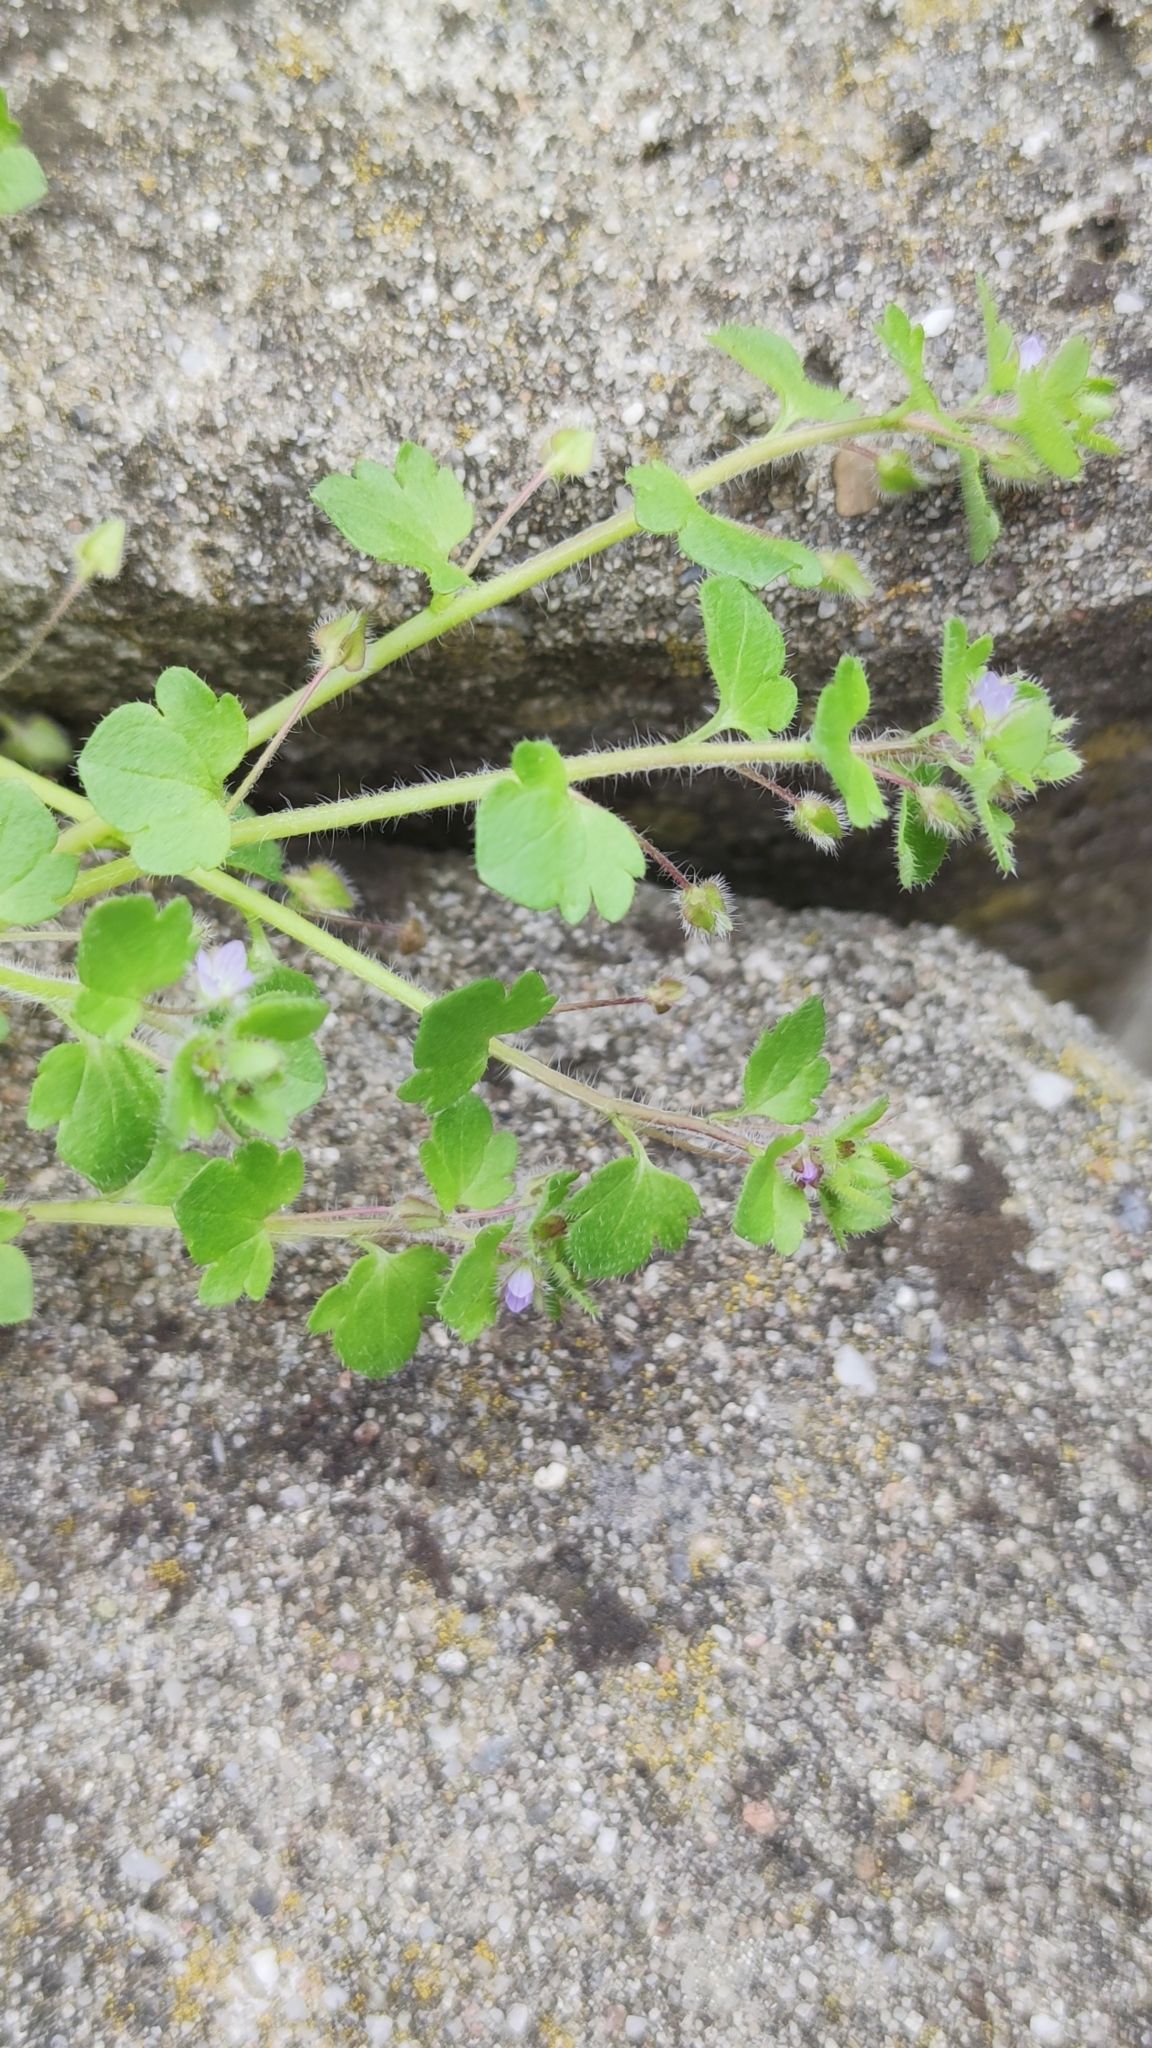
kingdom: Plantae
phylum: Tracheophyta
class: Magnoliopsida
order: Lamiales
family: Plantaginaceae
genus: Veronica
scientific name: Veronica sublobata
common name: False ivy-leaved speedwell
